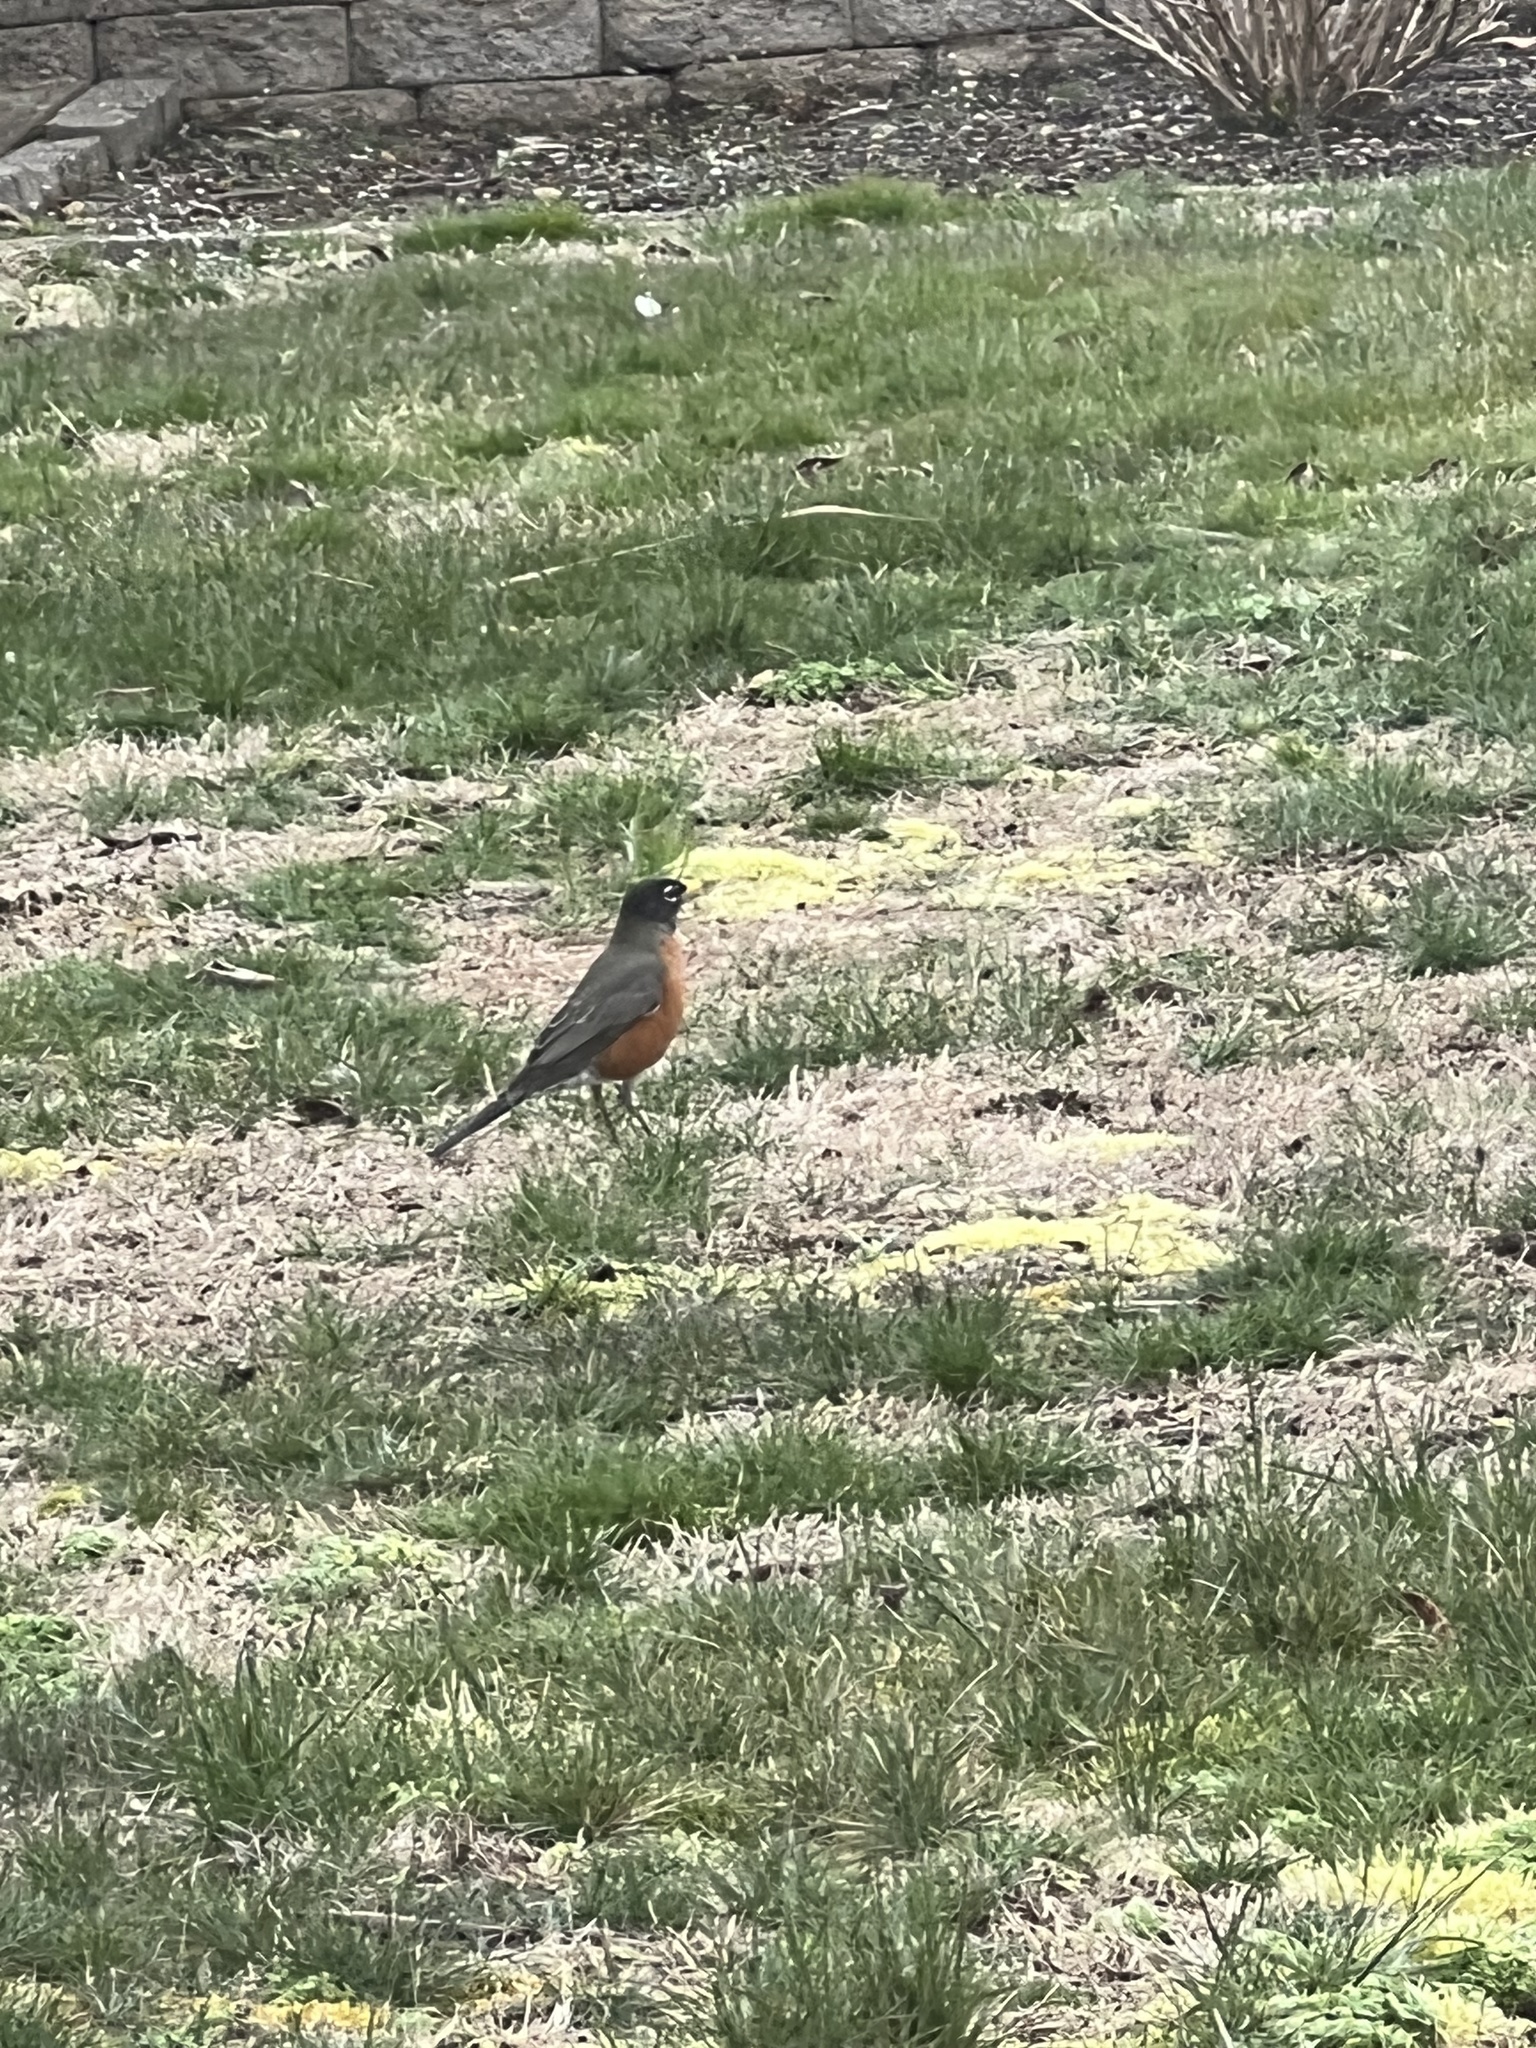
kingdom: Animalia
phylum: Chordata
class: Aves
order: Passeriformes
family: Turdidae
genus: Turdus
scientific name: Turdus migratorius
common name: American robin
